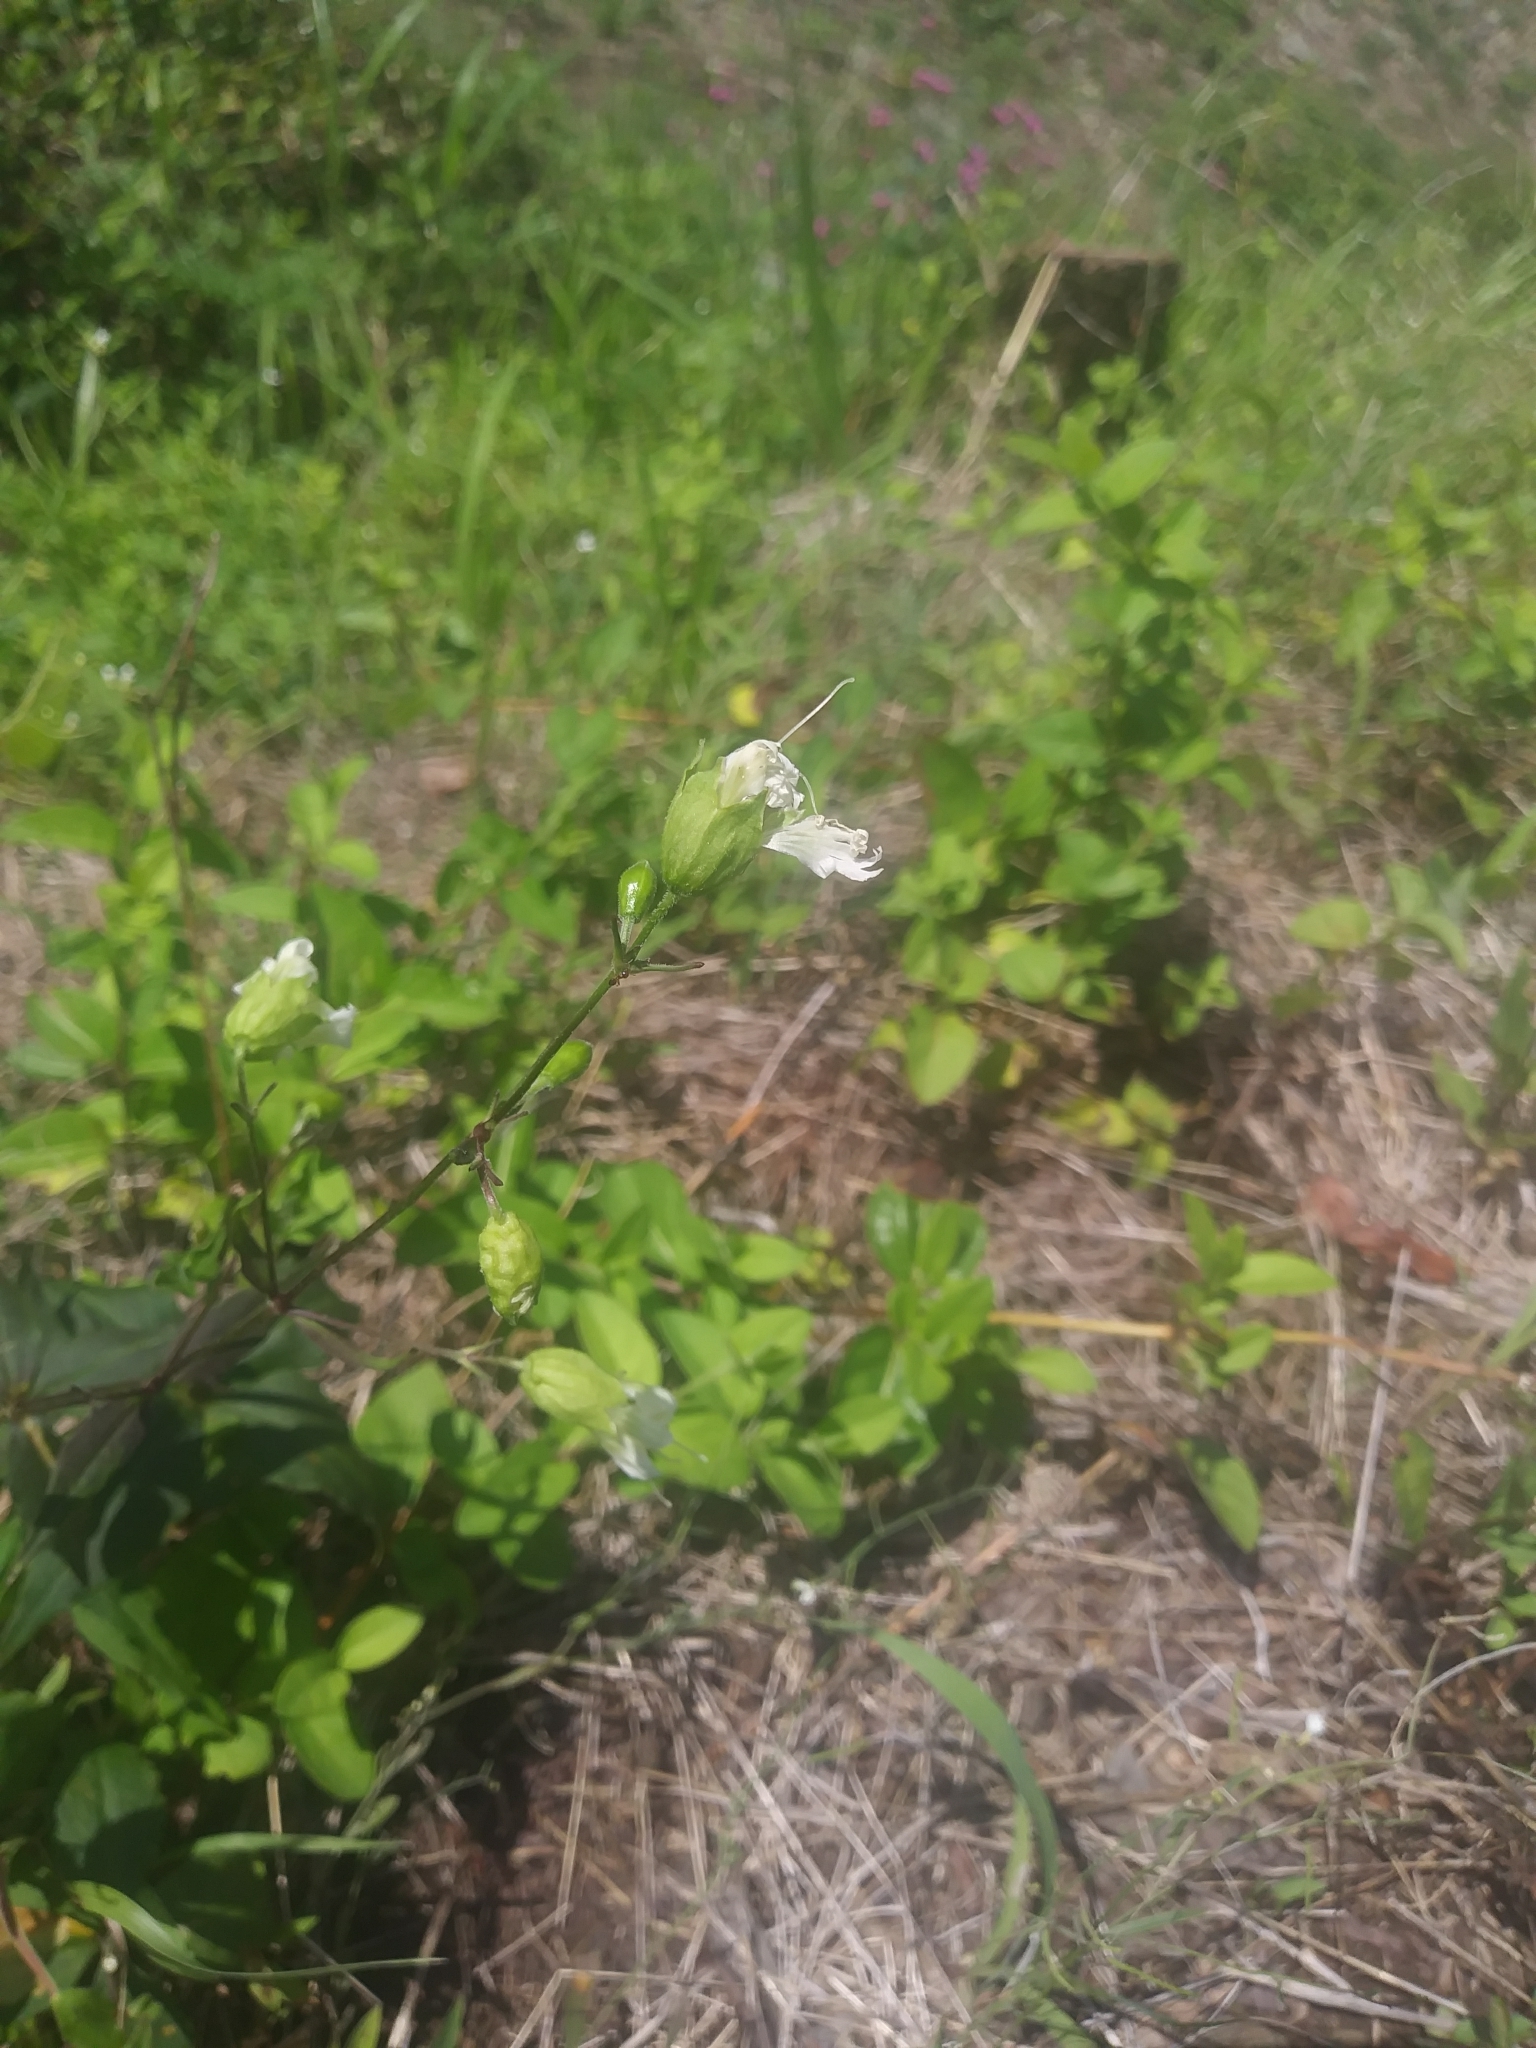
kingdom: Plantae
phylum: Tracheophyta
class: Magnoliopsida
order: Caryophyllales
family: Caryophyllaceae
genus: Silene
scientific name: Silene stellata
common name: Starry campion
